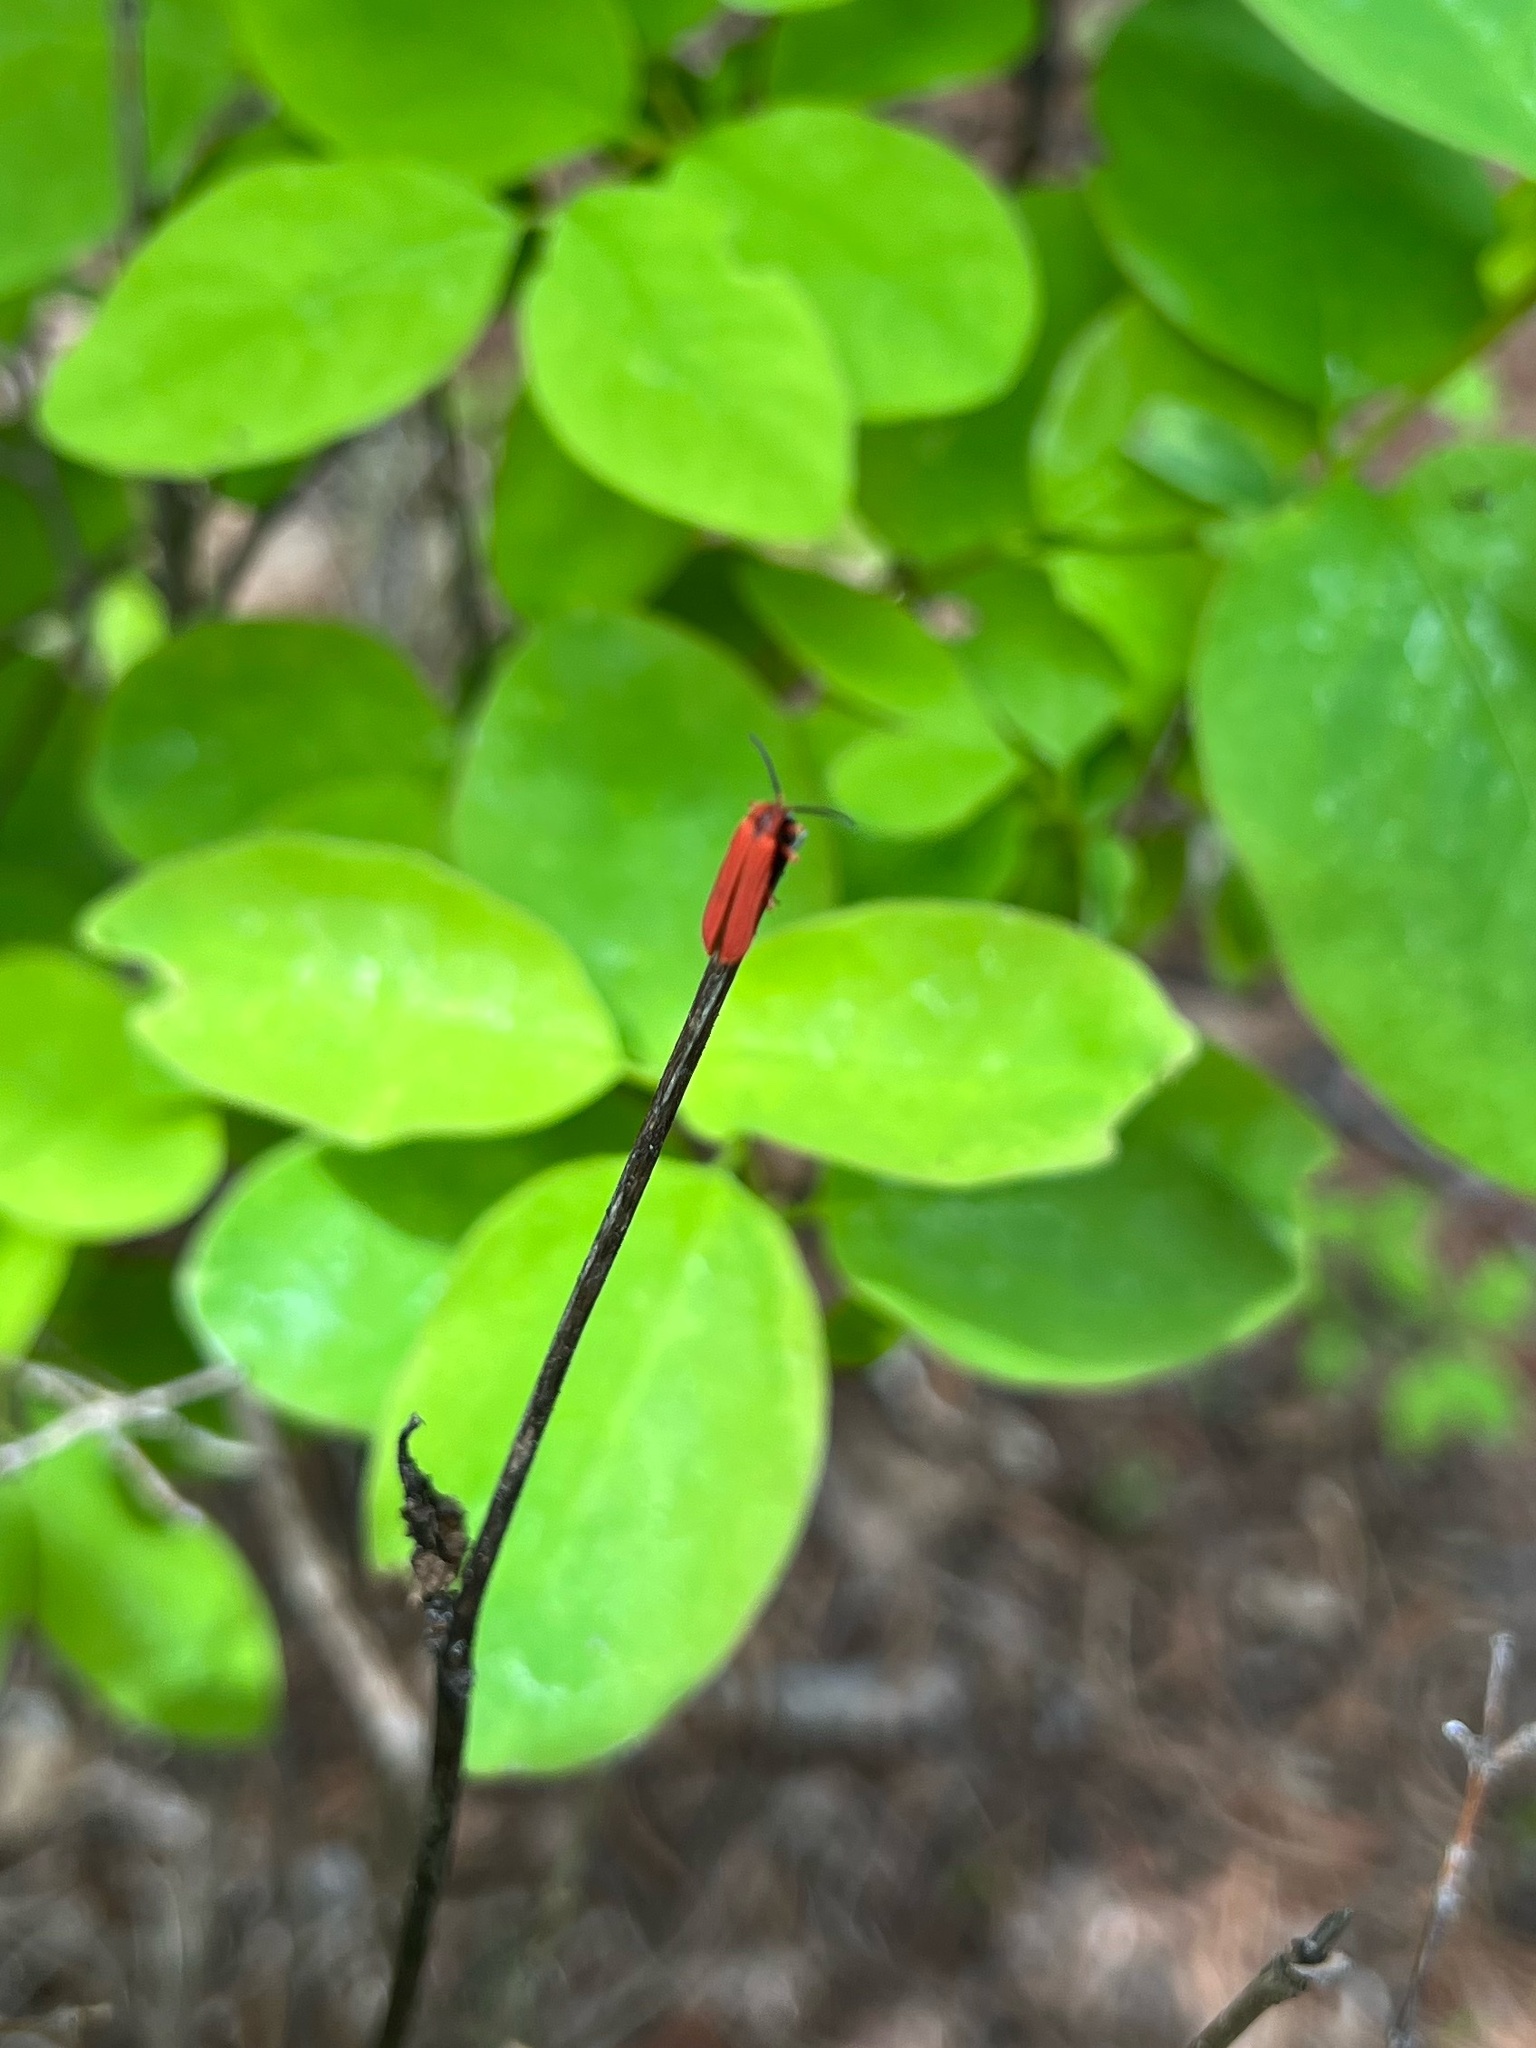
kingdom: Animalia
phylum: Arthropoda
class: Insecta
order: Coleoptera
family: Lycidae
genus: Dictyoptera
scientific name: Dictyoptera simplicipes
